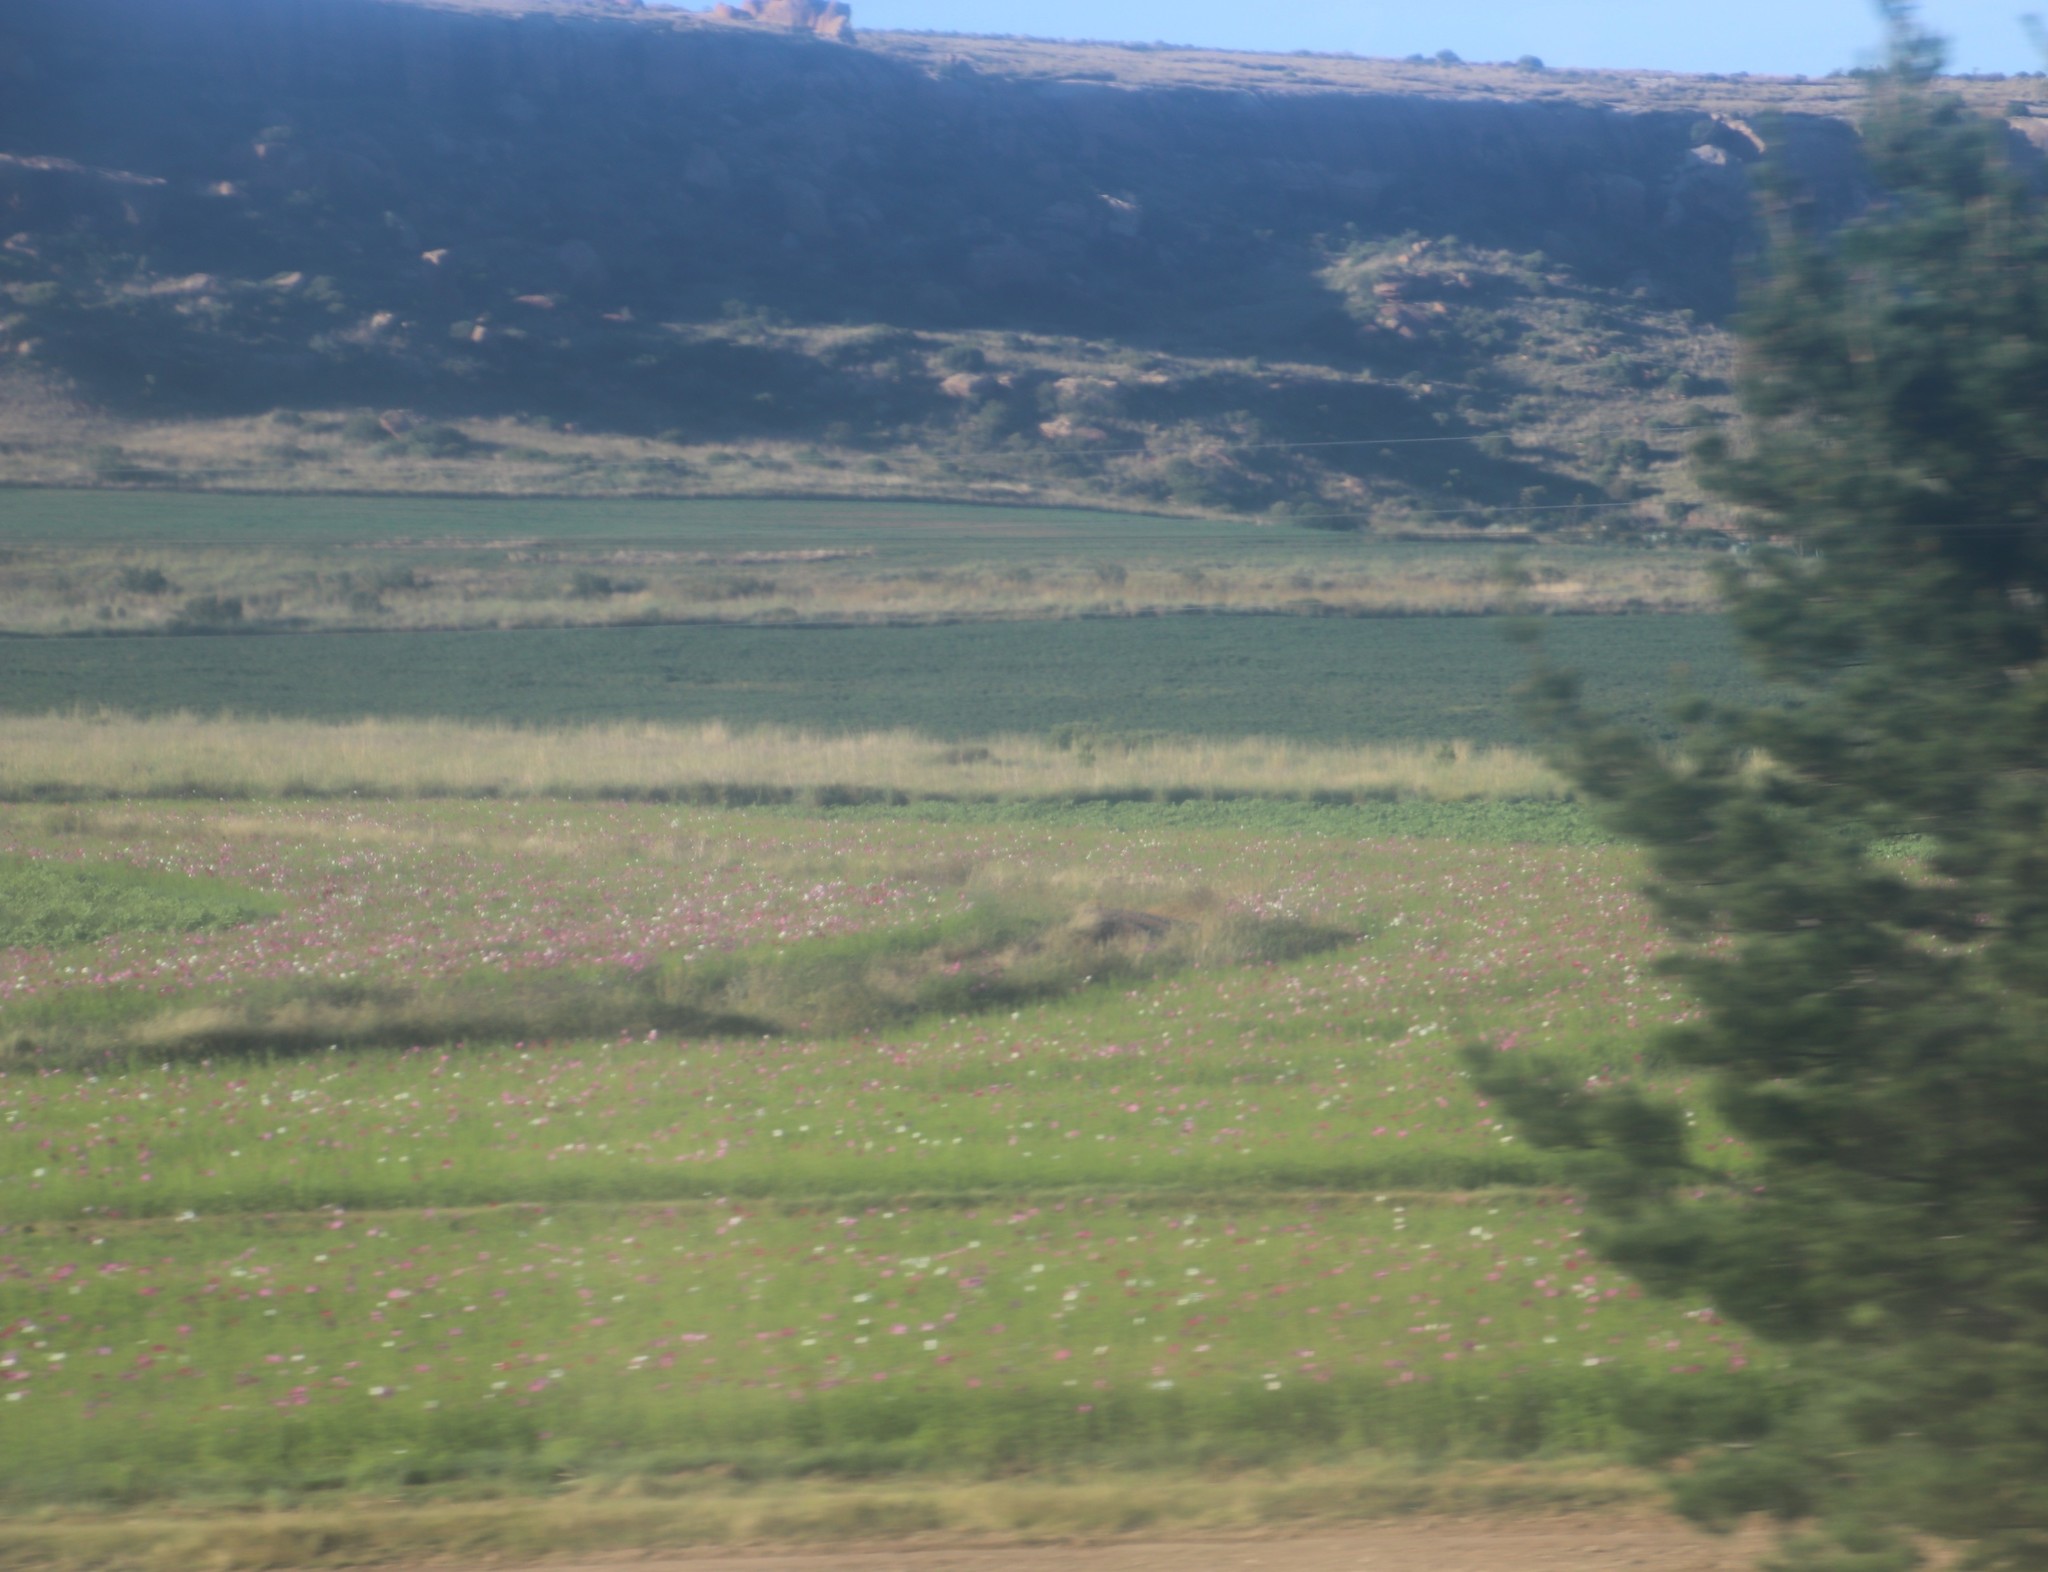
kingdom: Plantae
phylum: Tracheophyta
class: Magnoliopsida
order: Asterales
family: Asteraceae
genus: Cosmos
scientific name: Cosmos bipinnatus
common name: Garden cosmos
